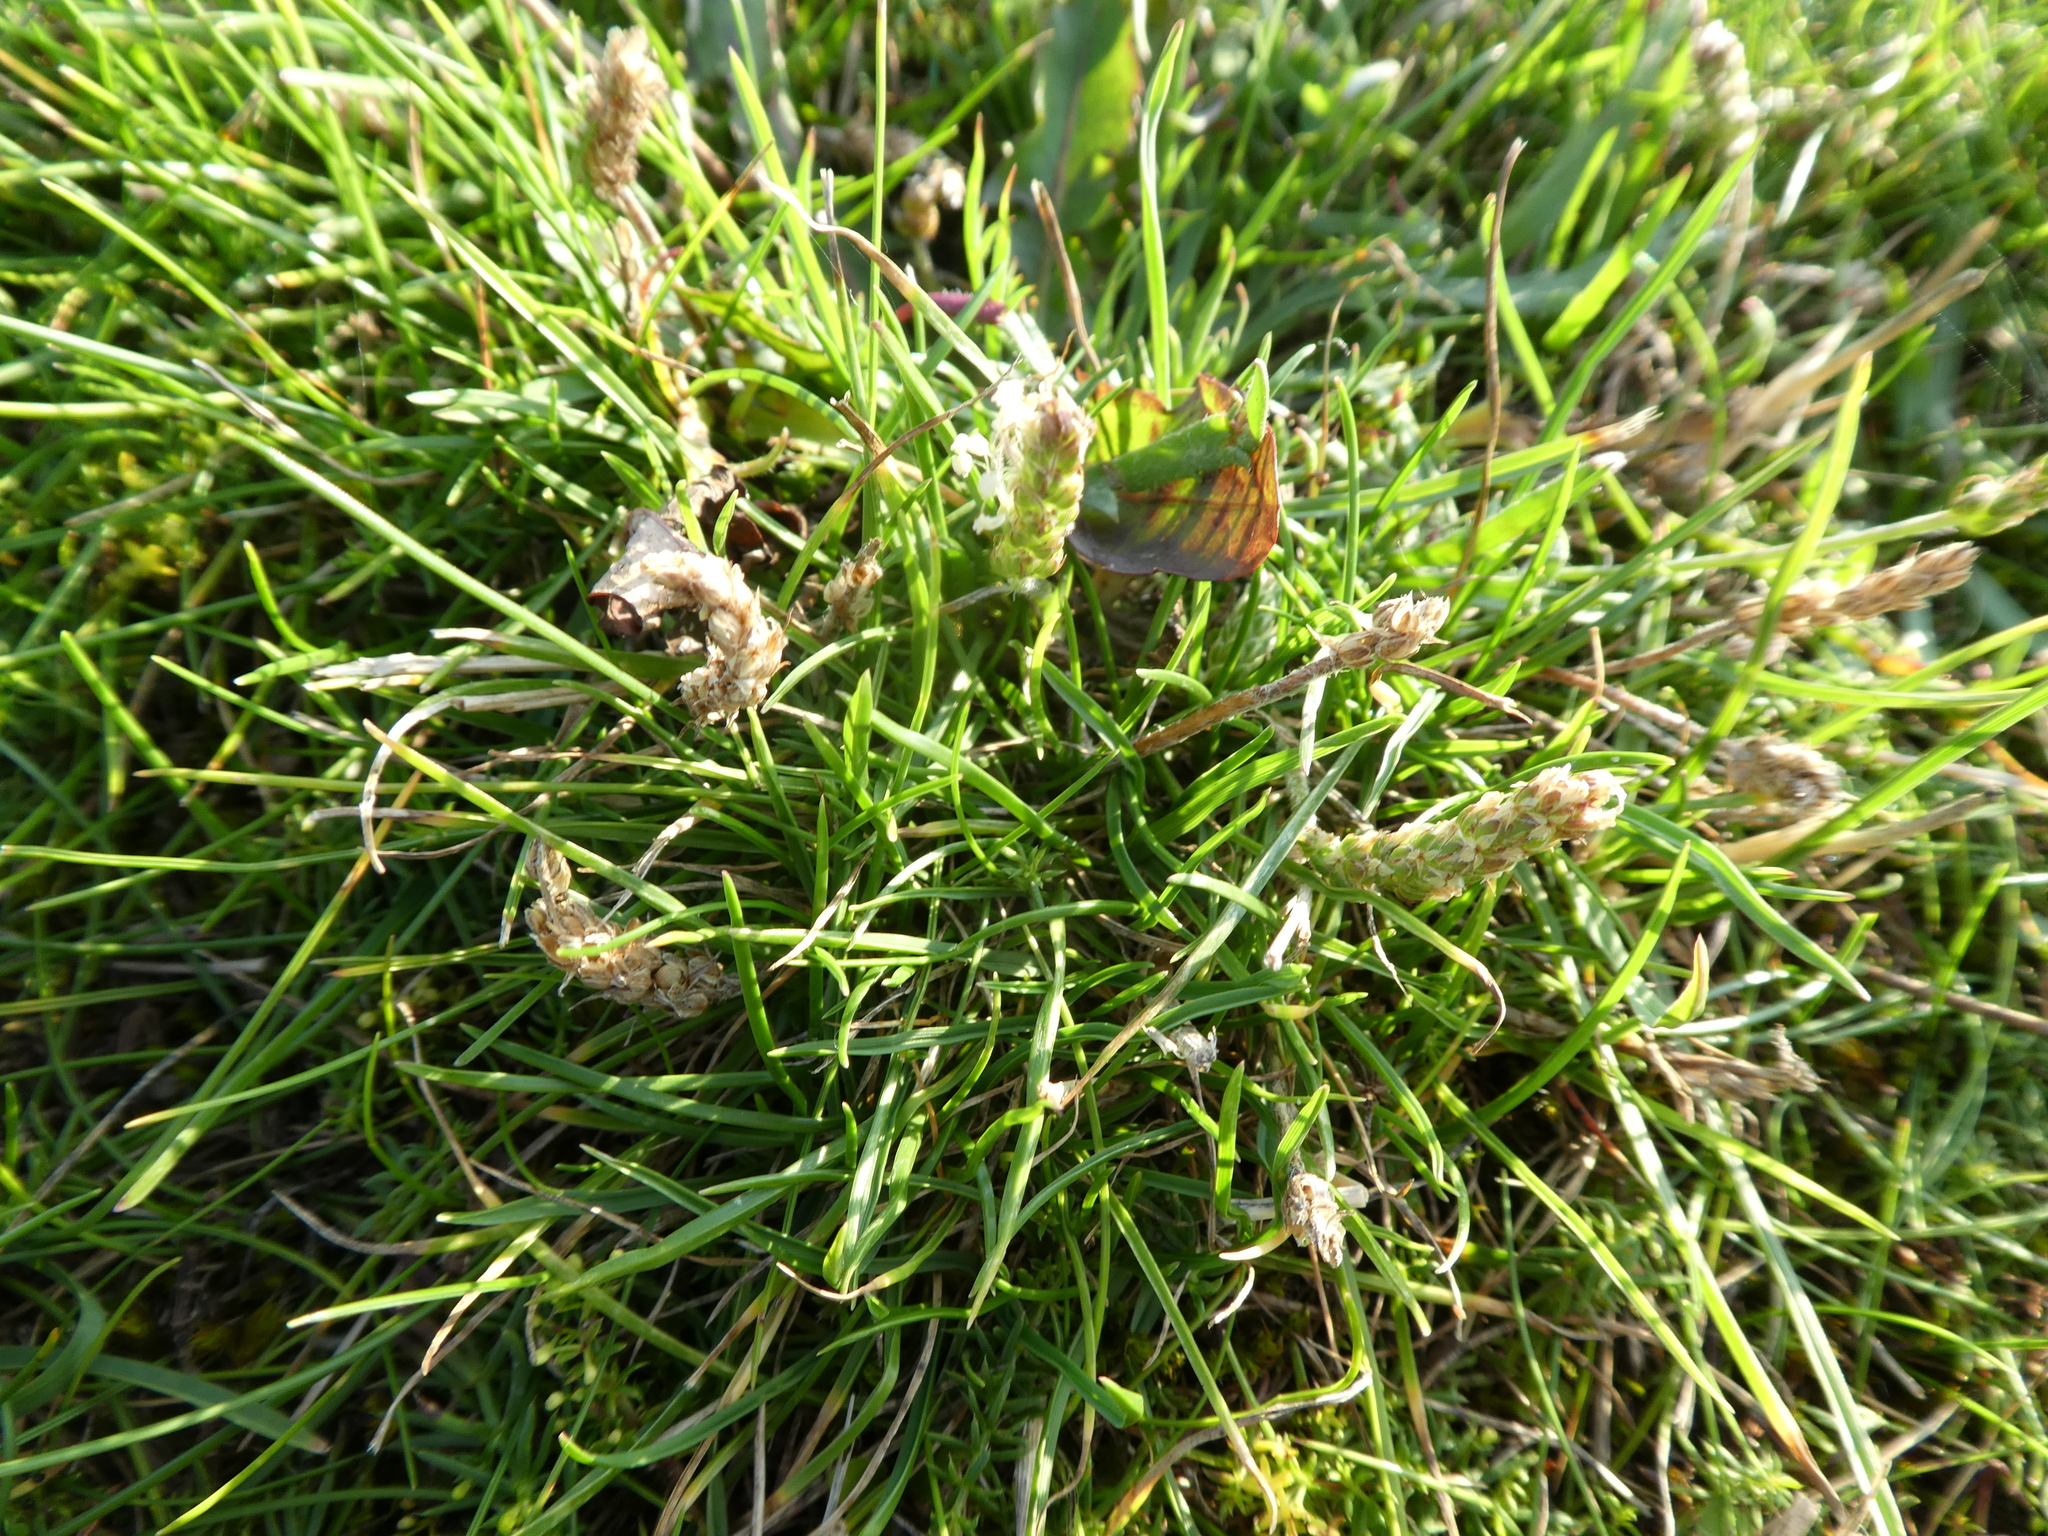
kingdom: Plantae
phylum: Tracheophyta
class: Magnoliopsida
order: Lamiales
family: Plantaginaceae
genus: Plantago
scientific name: Plantago maritima
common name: Sea plantain
